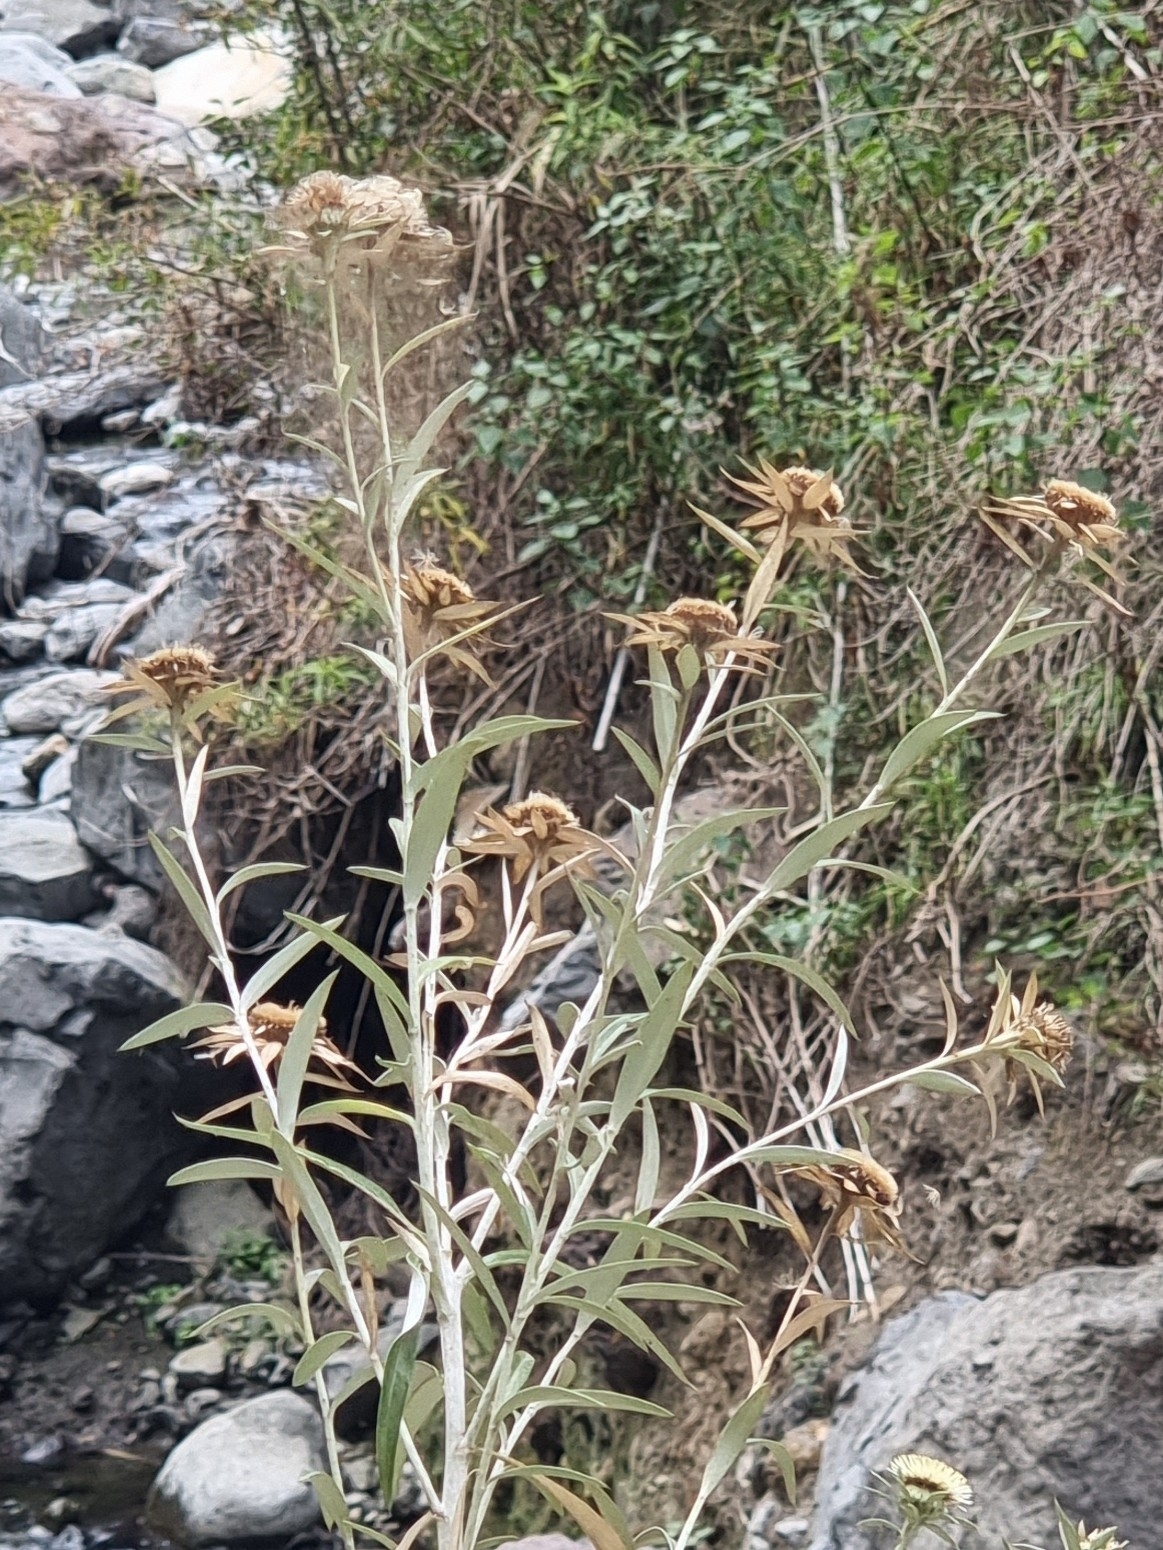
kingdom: Plantae
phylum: Tracheophyta
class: Magnoliopsida
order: Asterales
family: Asteraceae
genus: Carlina
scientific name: Carlina salicifolia
